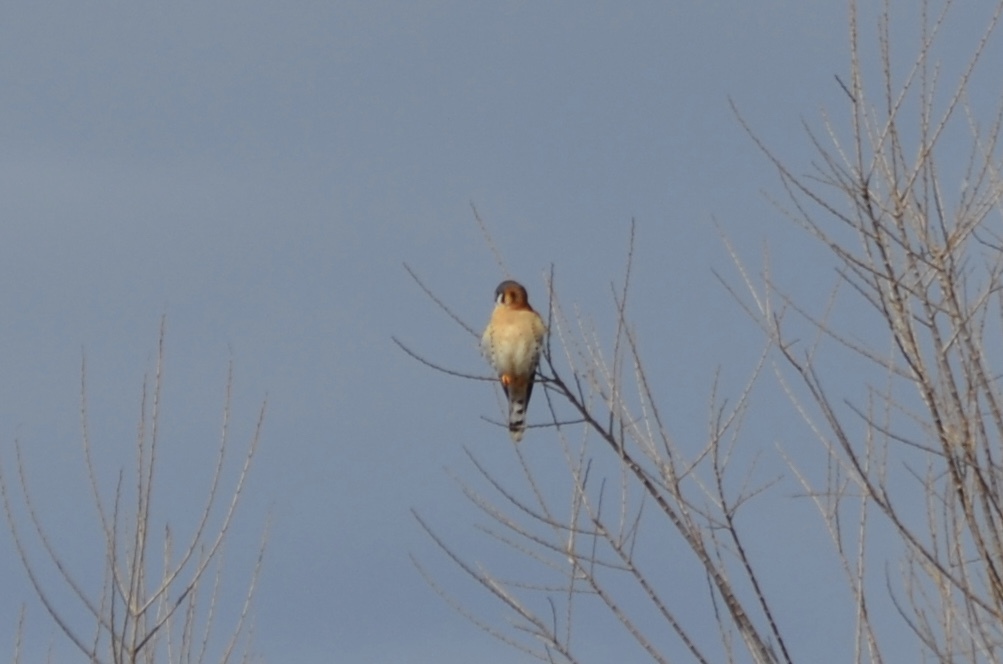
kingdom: Animalia
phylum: Chordata
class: Aves
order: Falconiformes
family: Falconidae
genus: Falco
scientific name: Falco sparverius
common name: American kestrel
